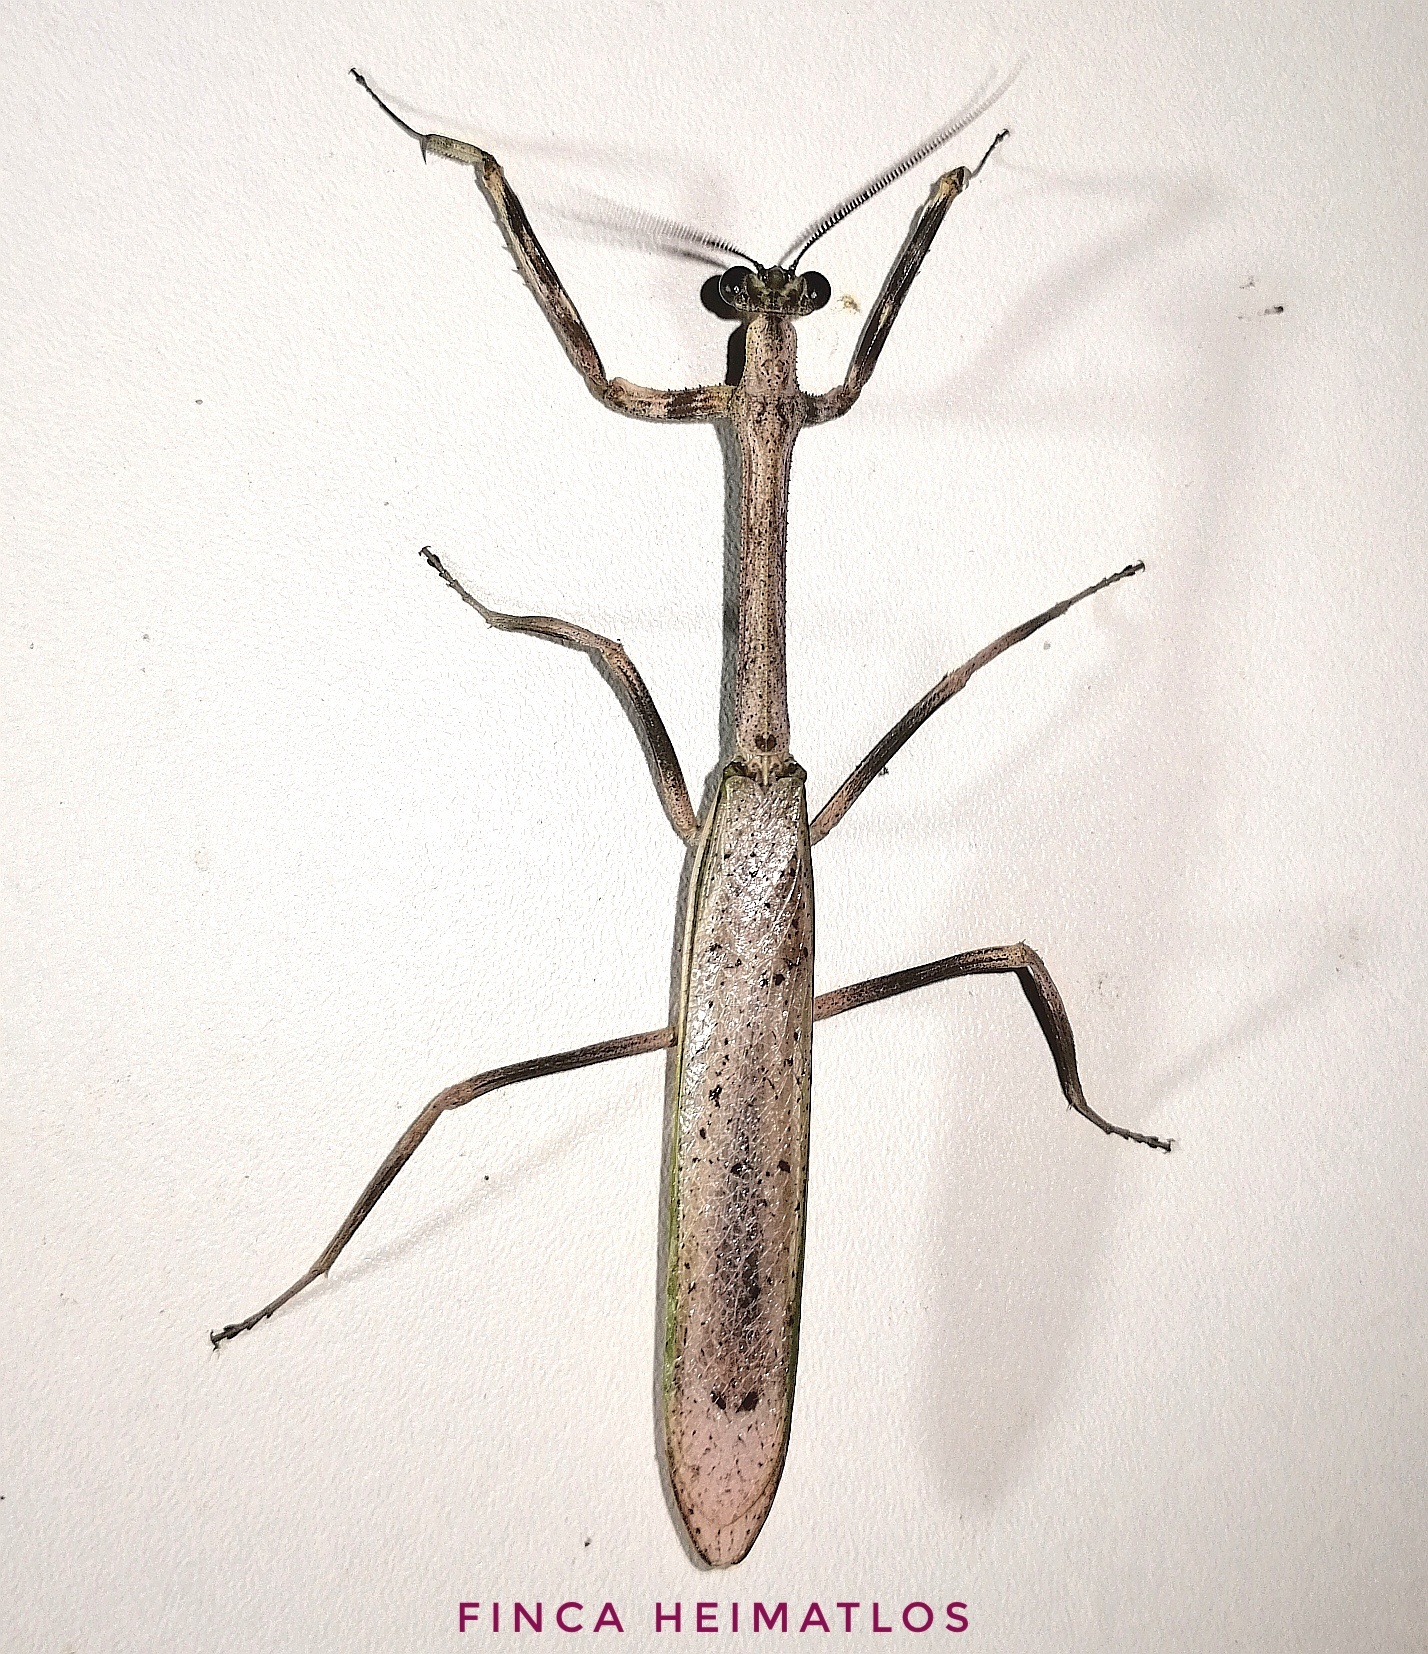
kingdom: Animalia
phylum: Arthropoda
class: Insecta
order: Mantodea
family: Mantidae
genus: Pseudovates
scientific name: Pseudovates brasiliensis
